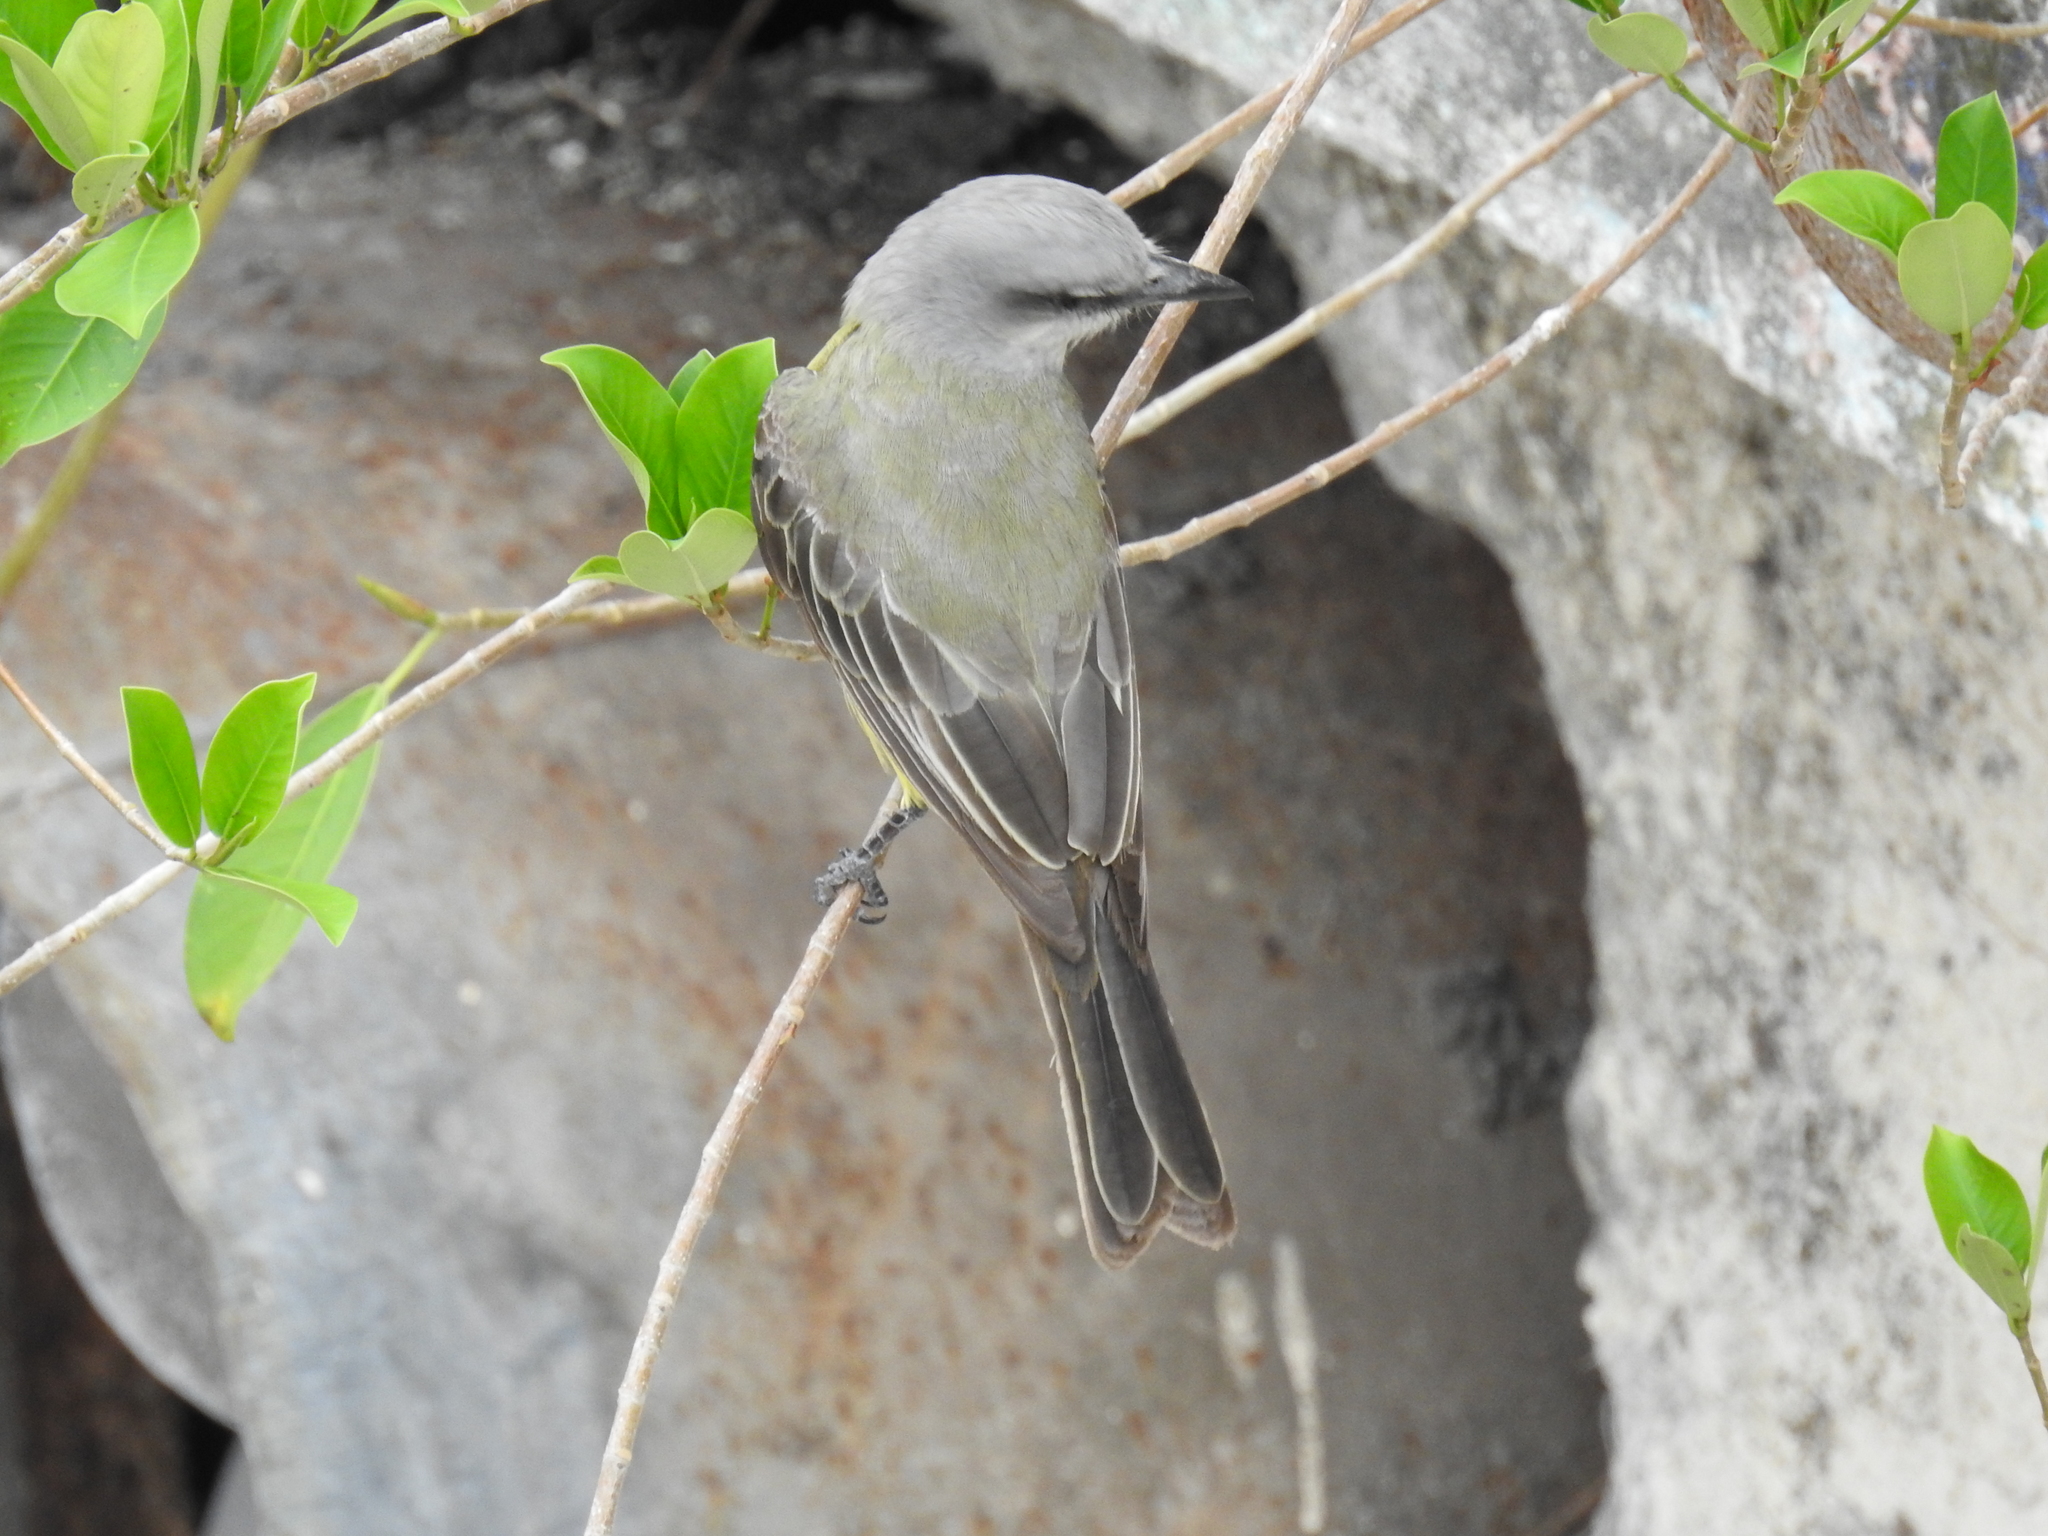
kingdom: Animalia
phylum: Chordata
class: Aves
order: Passeriformes
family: Tyrannidae
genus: Tyrannus
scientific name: Tyrannus melancholicus
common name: Tropical kingbird
